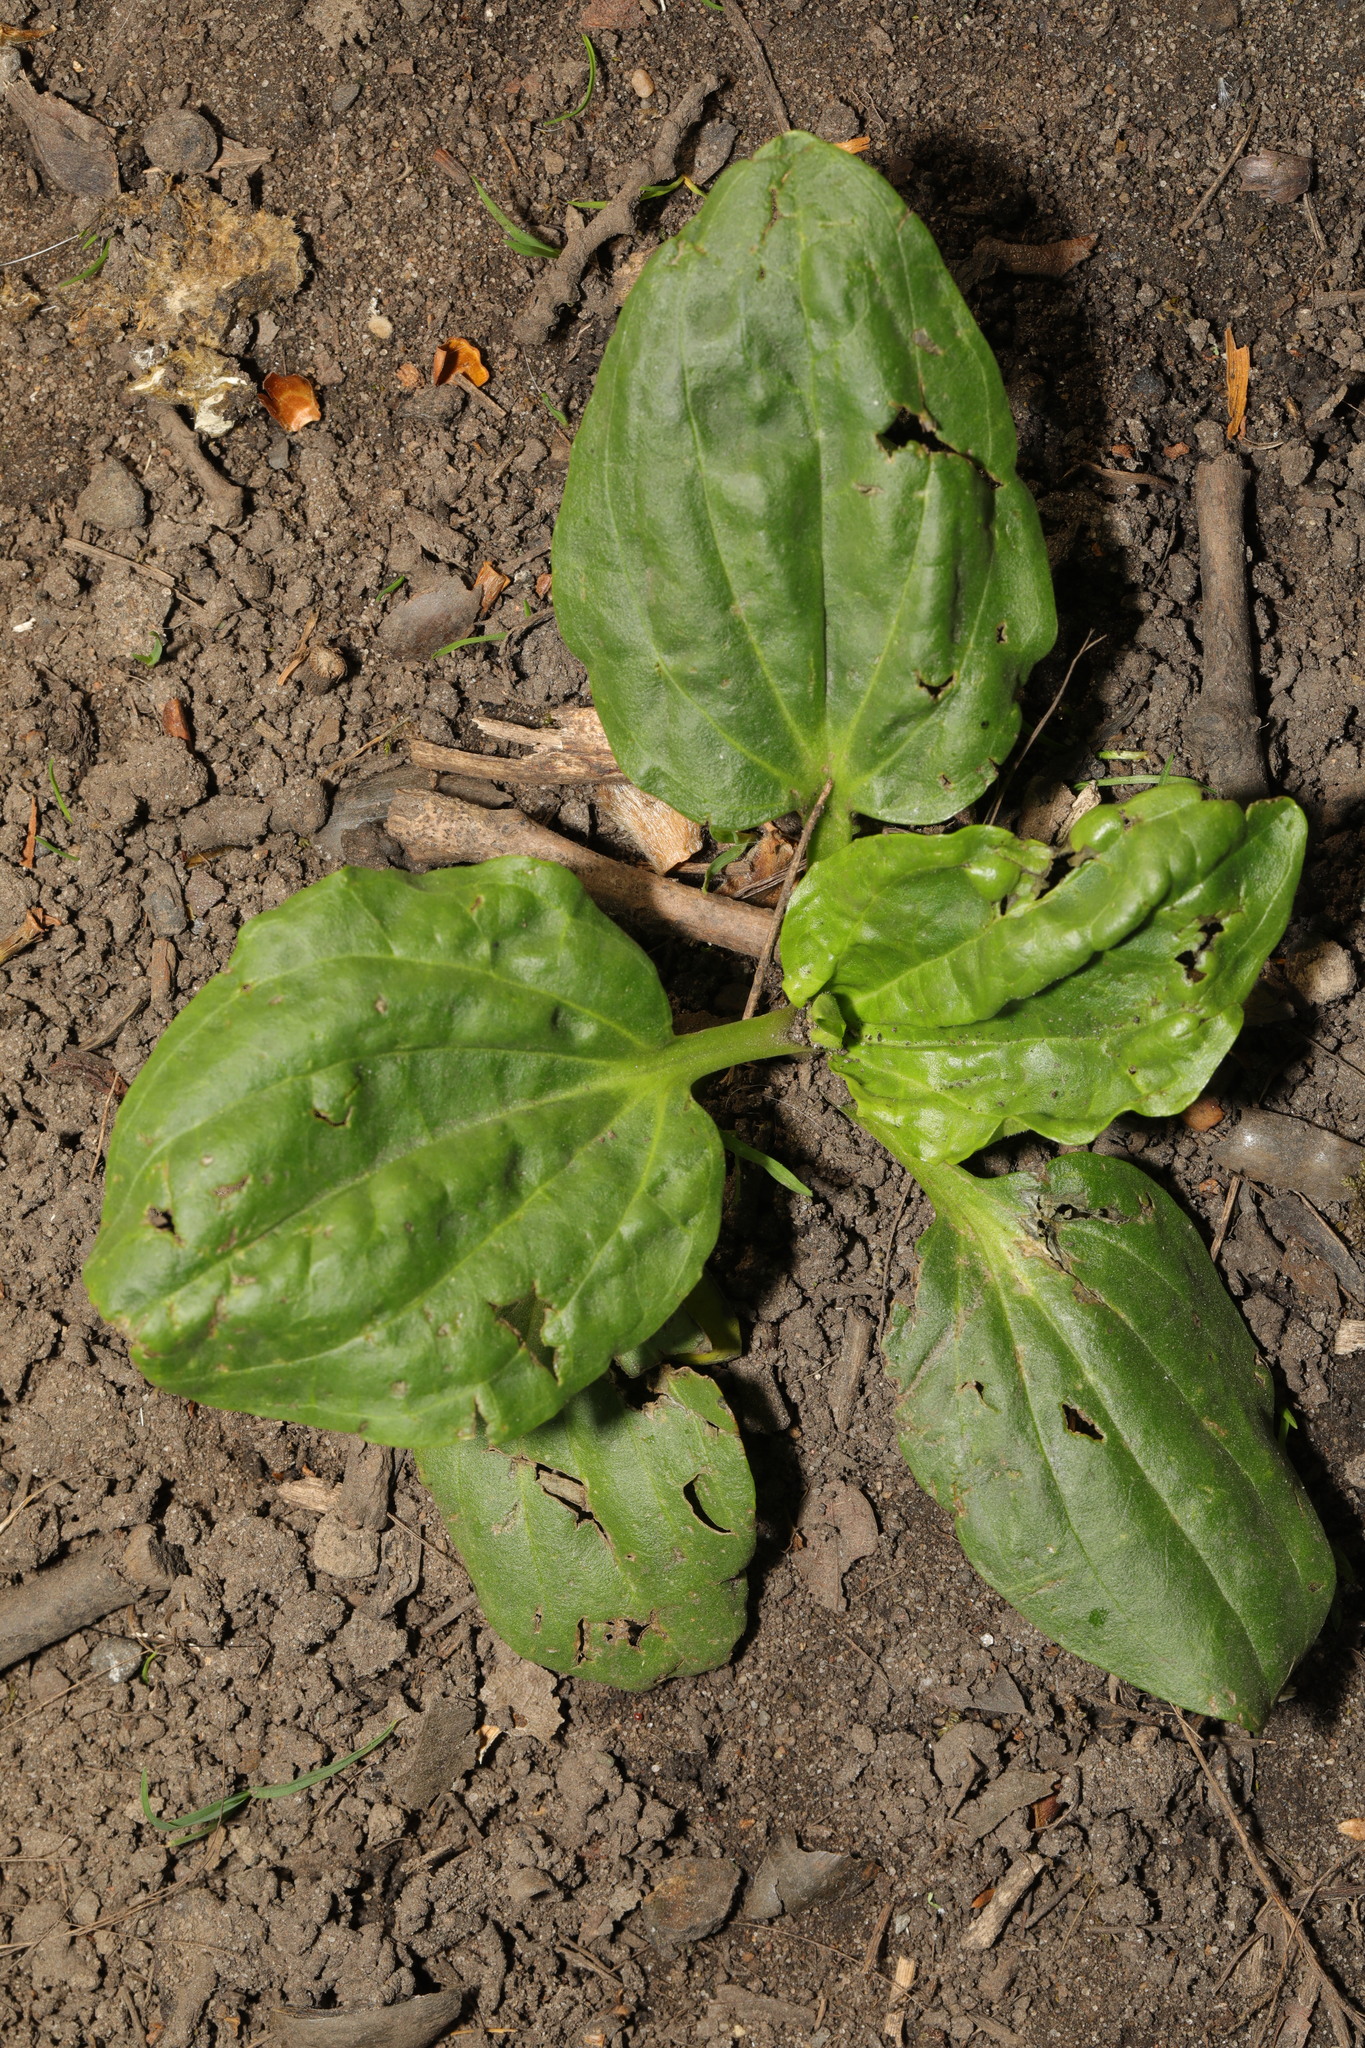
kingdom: Plantae
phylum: Tracheophyta
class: Magnoliopsida
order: Lamiales
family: Plantaginaceae
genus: Plantago
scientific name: Plantago major
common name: Common plantain
